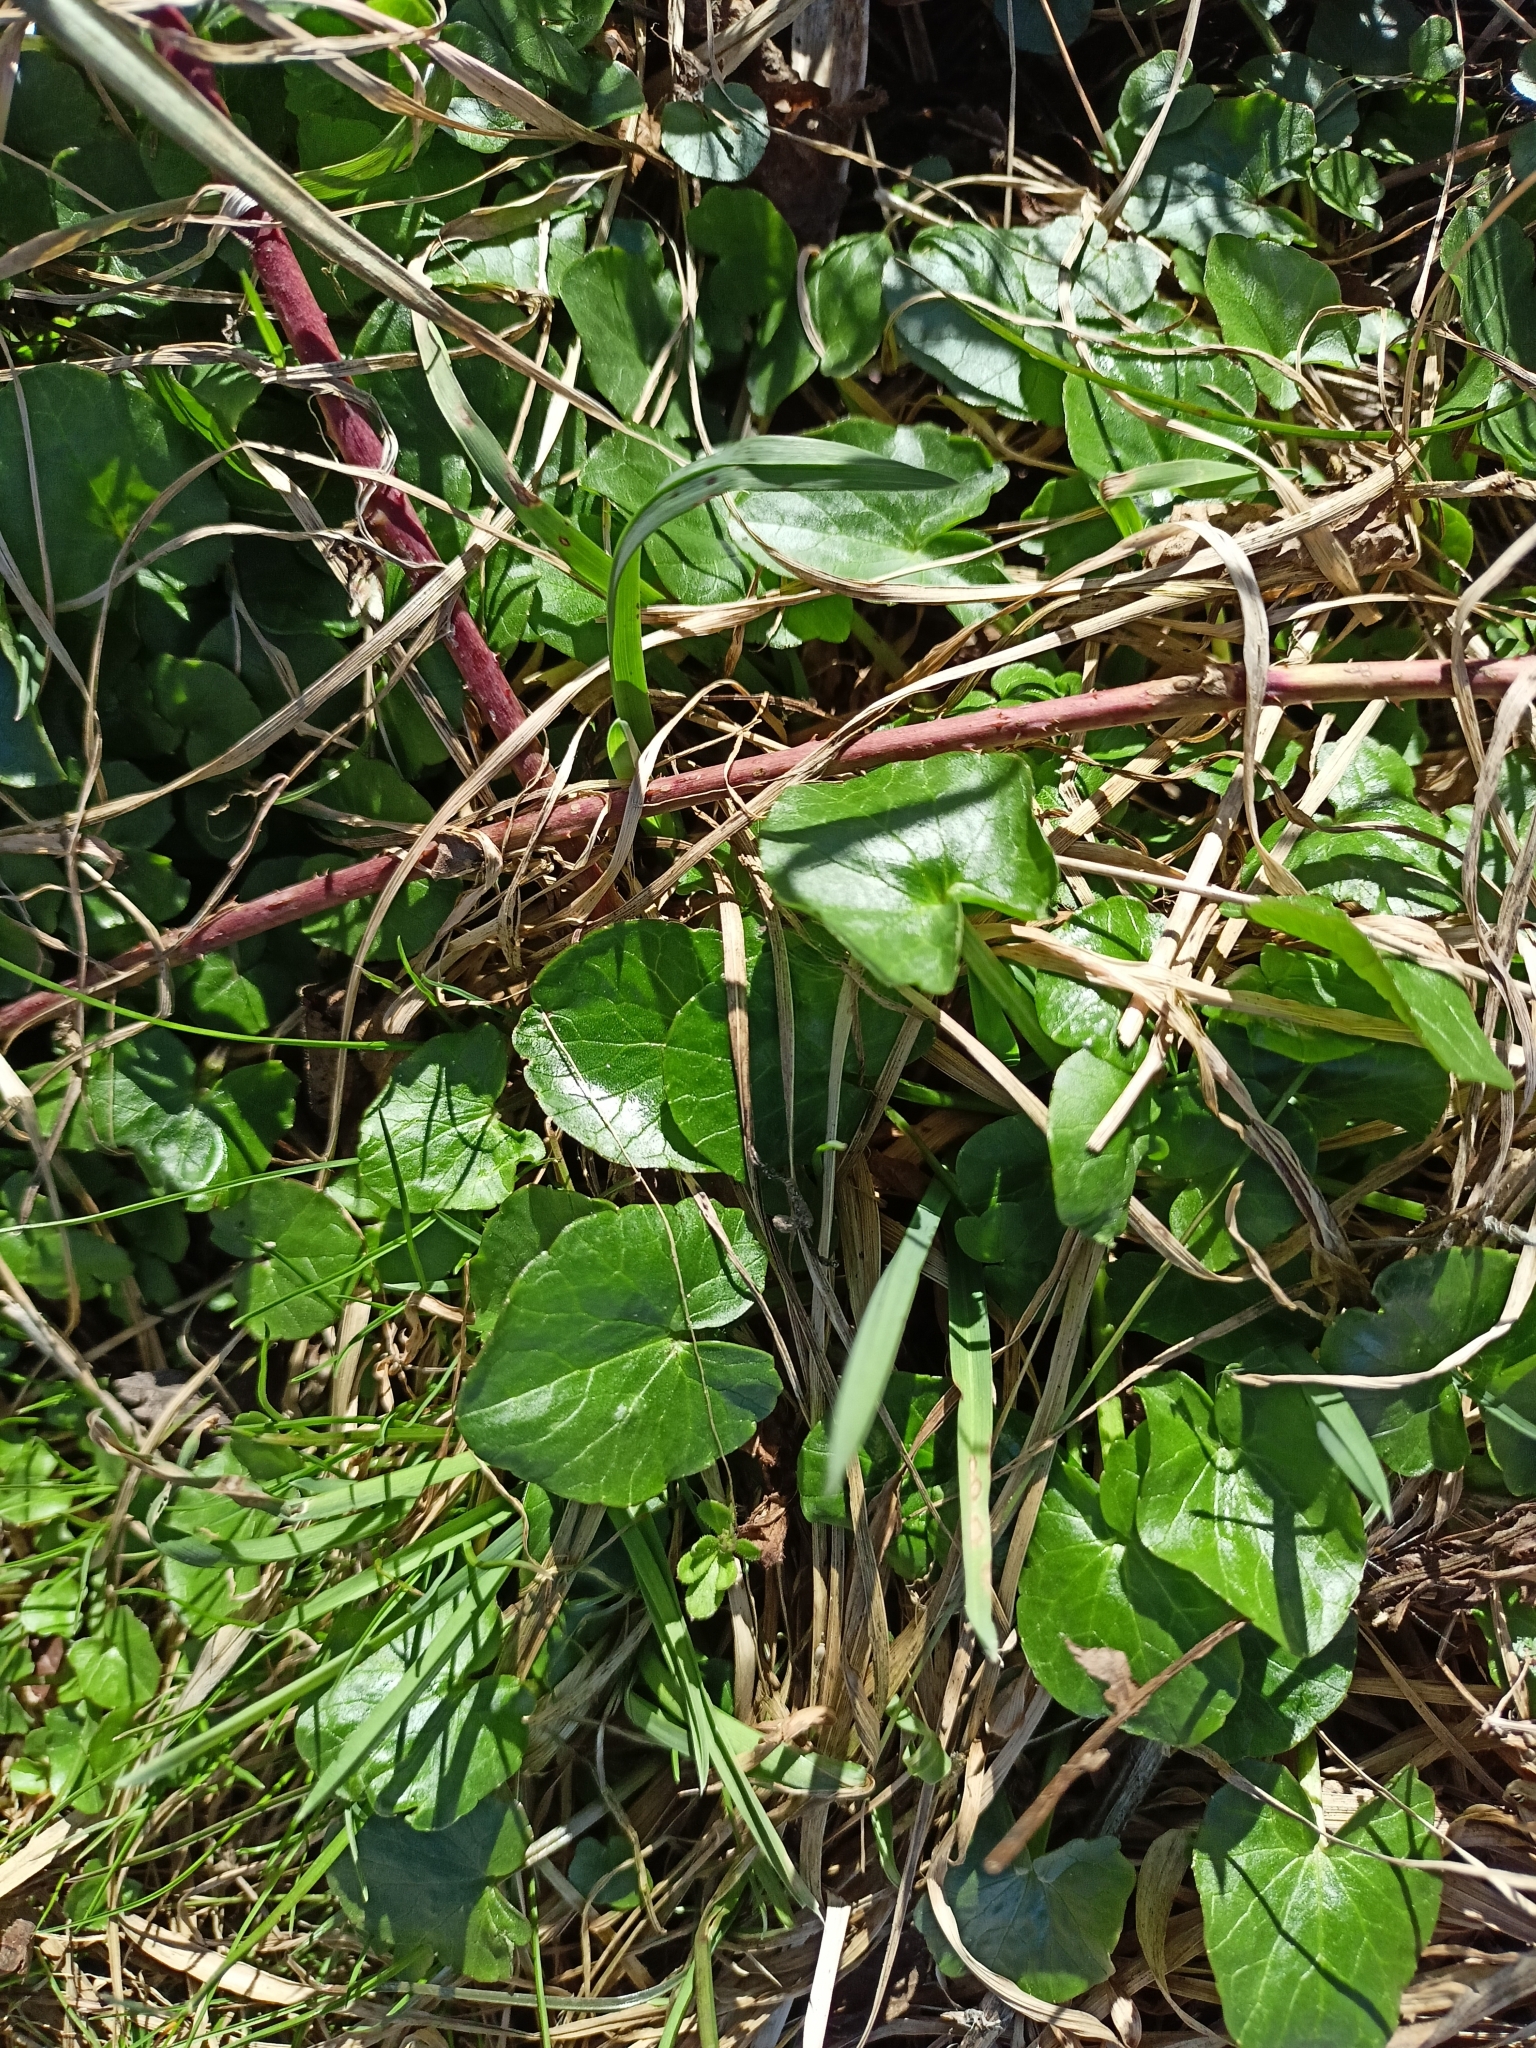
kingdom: Plantae
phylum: Tracheophyta
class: Magnoliopsida
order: Ranunculales
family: Ranunculaceae
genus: Ficaria
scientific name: Ficaria verna
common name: Lesser celandine
